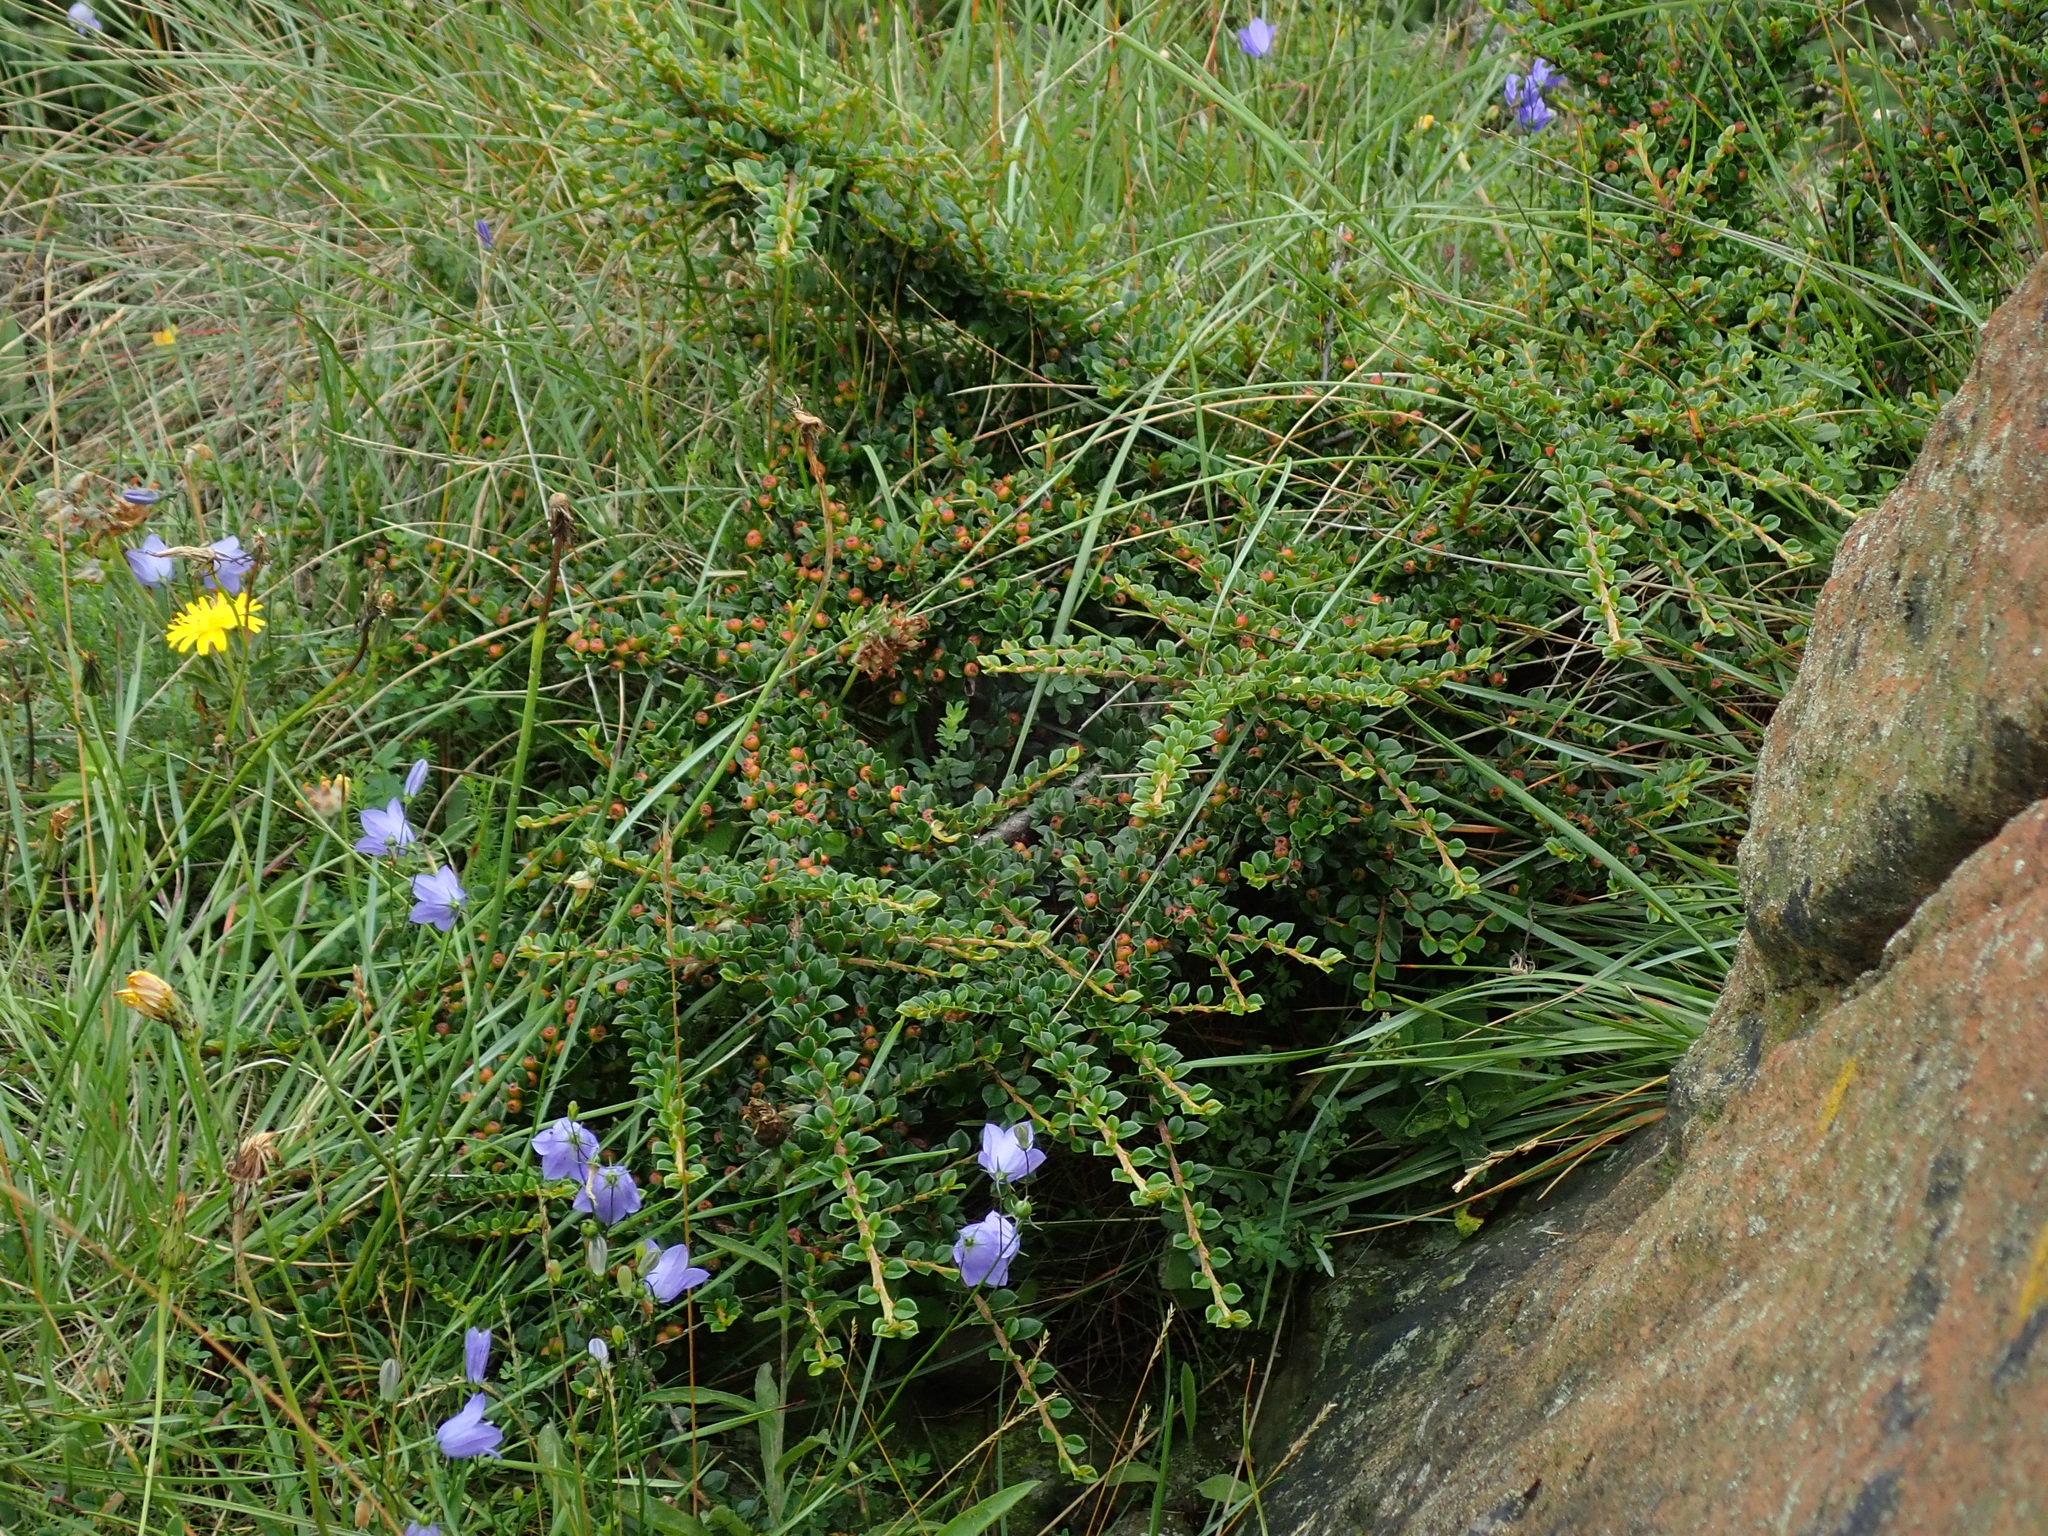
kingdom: Plantae
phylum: Tracheophyta
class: Magnoliopsida
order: Rosales
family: Rosaceae
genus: Cotoneaster
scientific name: Cotoneaster horizontalis
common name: Wall cotoneaster
